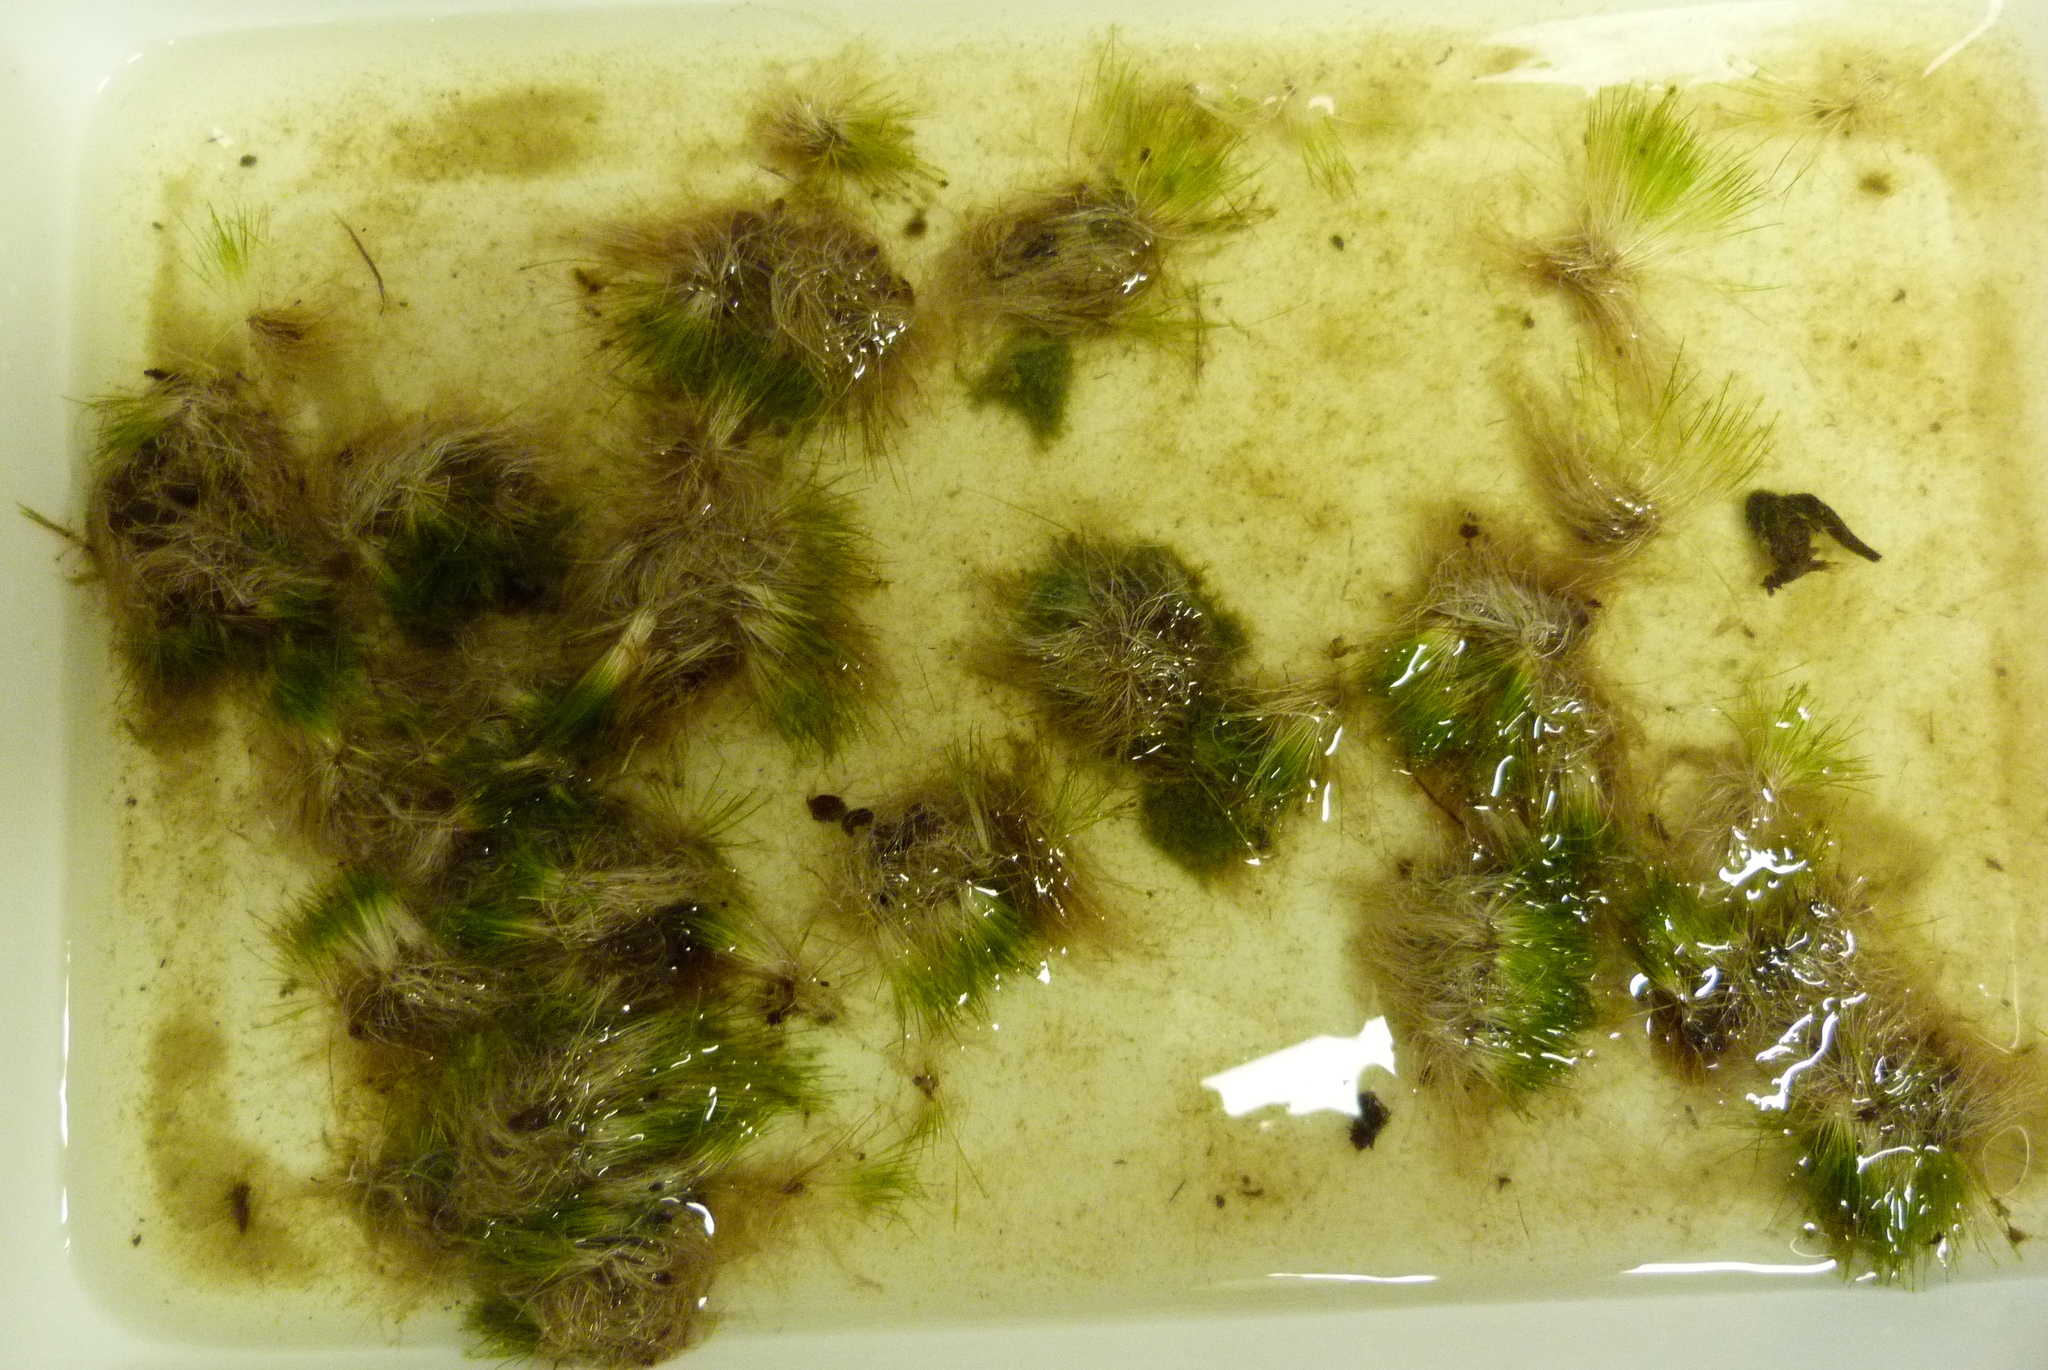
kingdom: Plantae
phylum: Tracheophyta
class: Magnoliopsida
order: Nymphaeales
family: Hydatellaceae
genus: Trithuria
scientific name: Trithuria inconspicua
